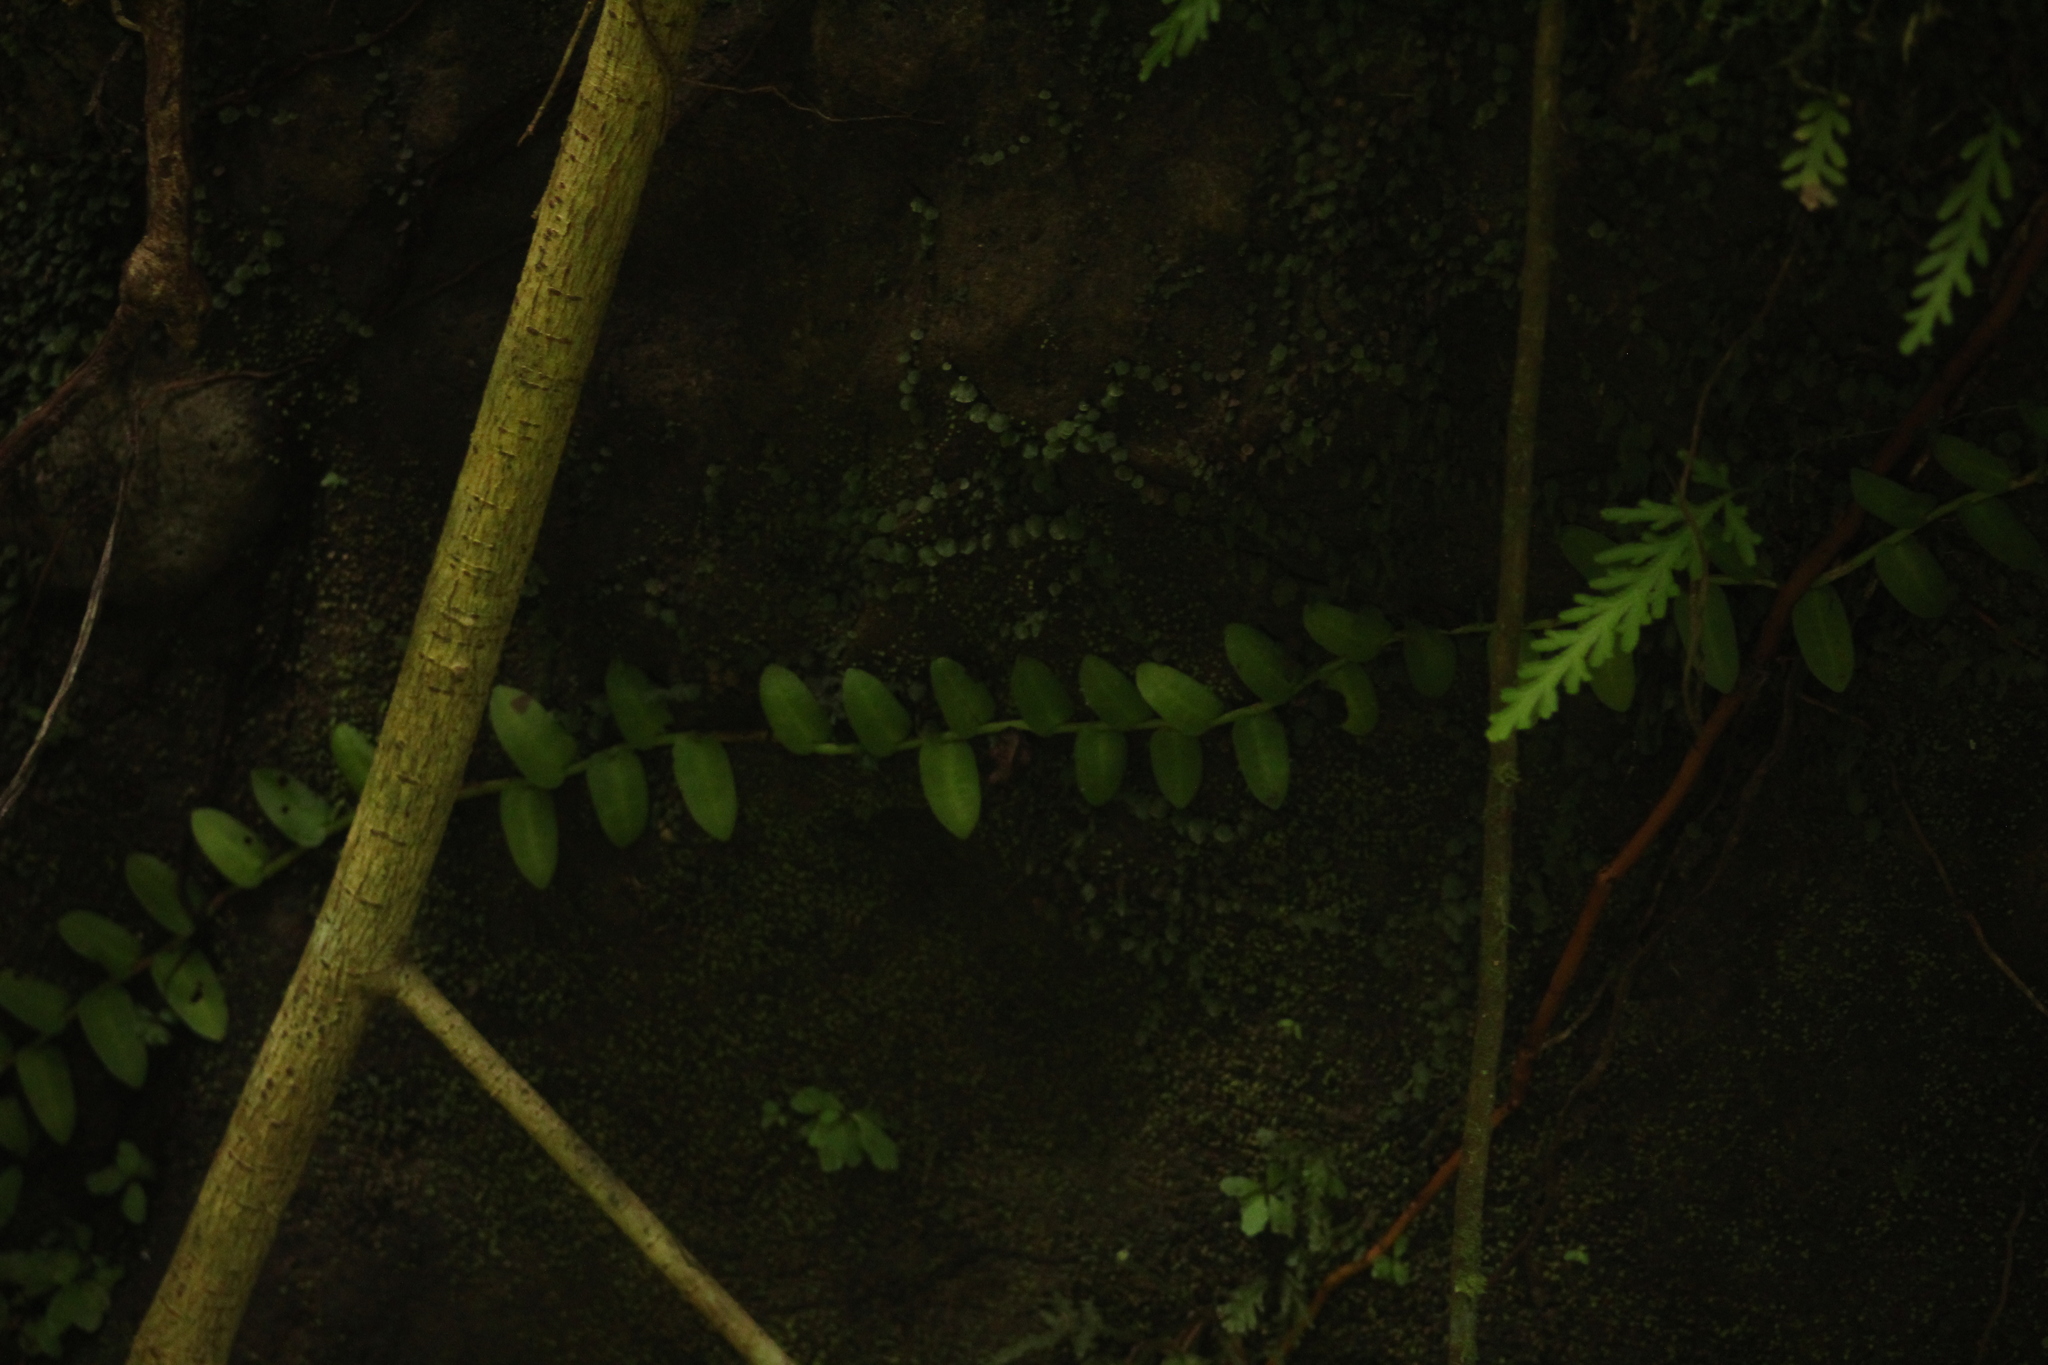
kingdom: Plantae
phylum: Tracheophyta
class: Magnoliopsida
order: Ericales
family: Marcgraviaceae
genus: Marcgravia
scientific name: Marcgravia umbellata
